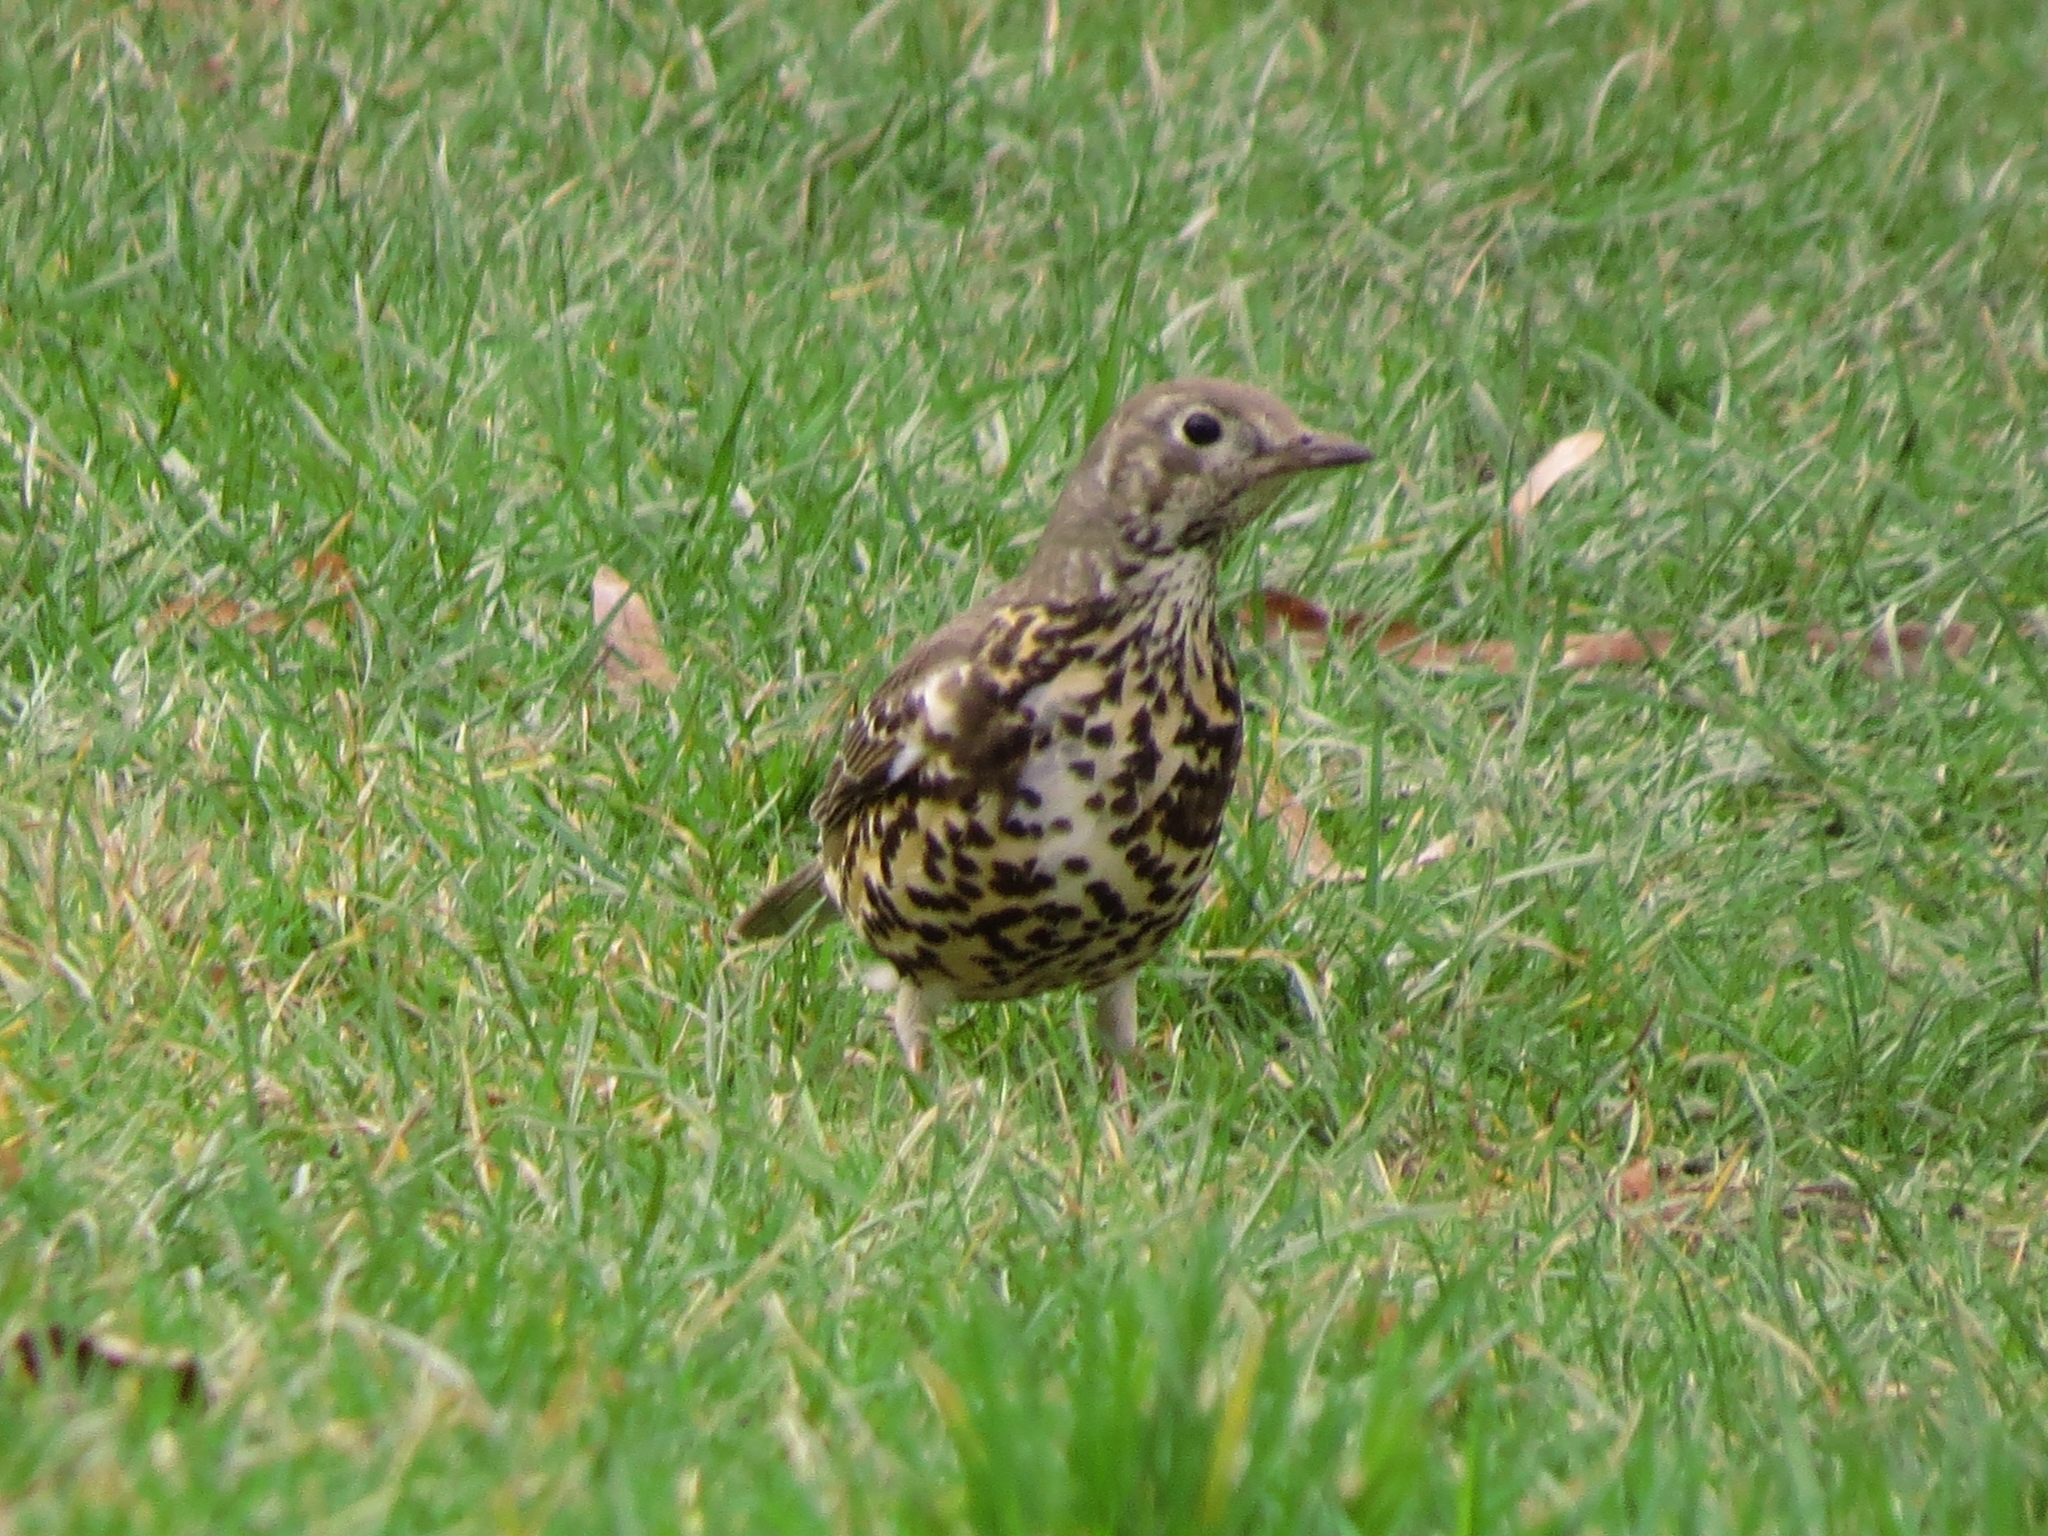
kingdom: Animalia
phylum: Chordata
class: Aves
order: Passeriformes
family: Turdidae
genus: Turdus
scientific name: Turdus viscivorus
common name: Mistle thrush
